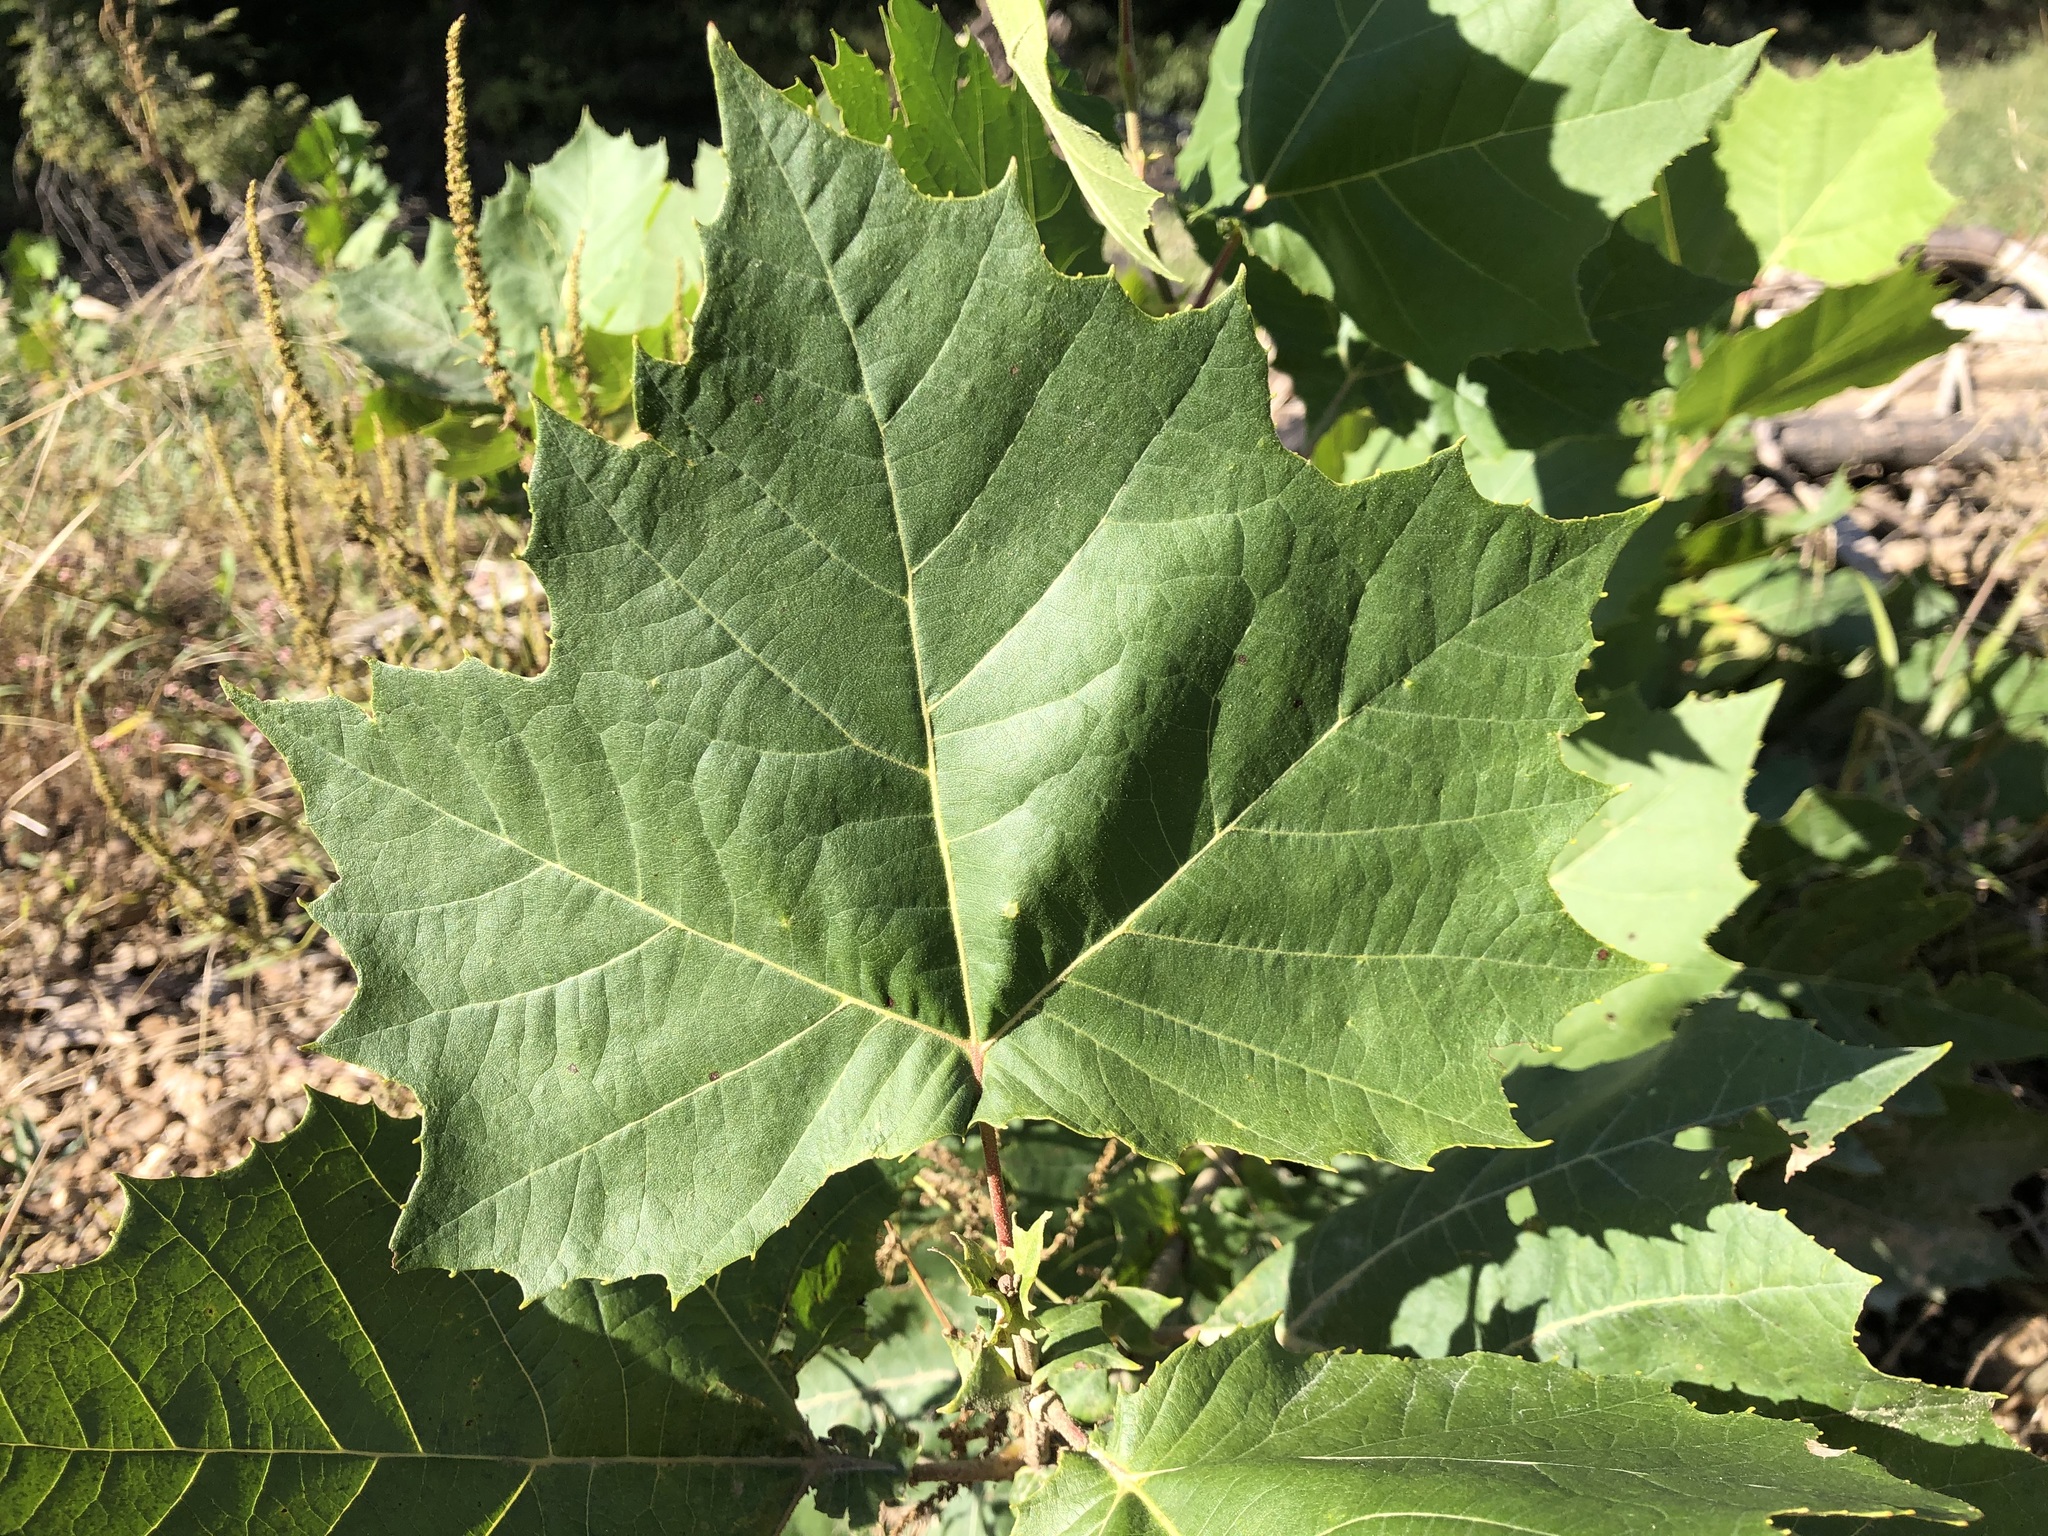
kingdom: Plantae
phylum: Tracheophyta
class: Magnoliopsida
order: Proteales
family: Platanaceae
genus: Platanus
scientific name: Platanus occidentalis
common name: American sycamore
